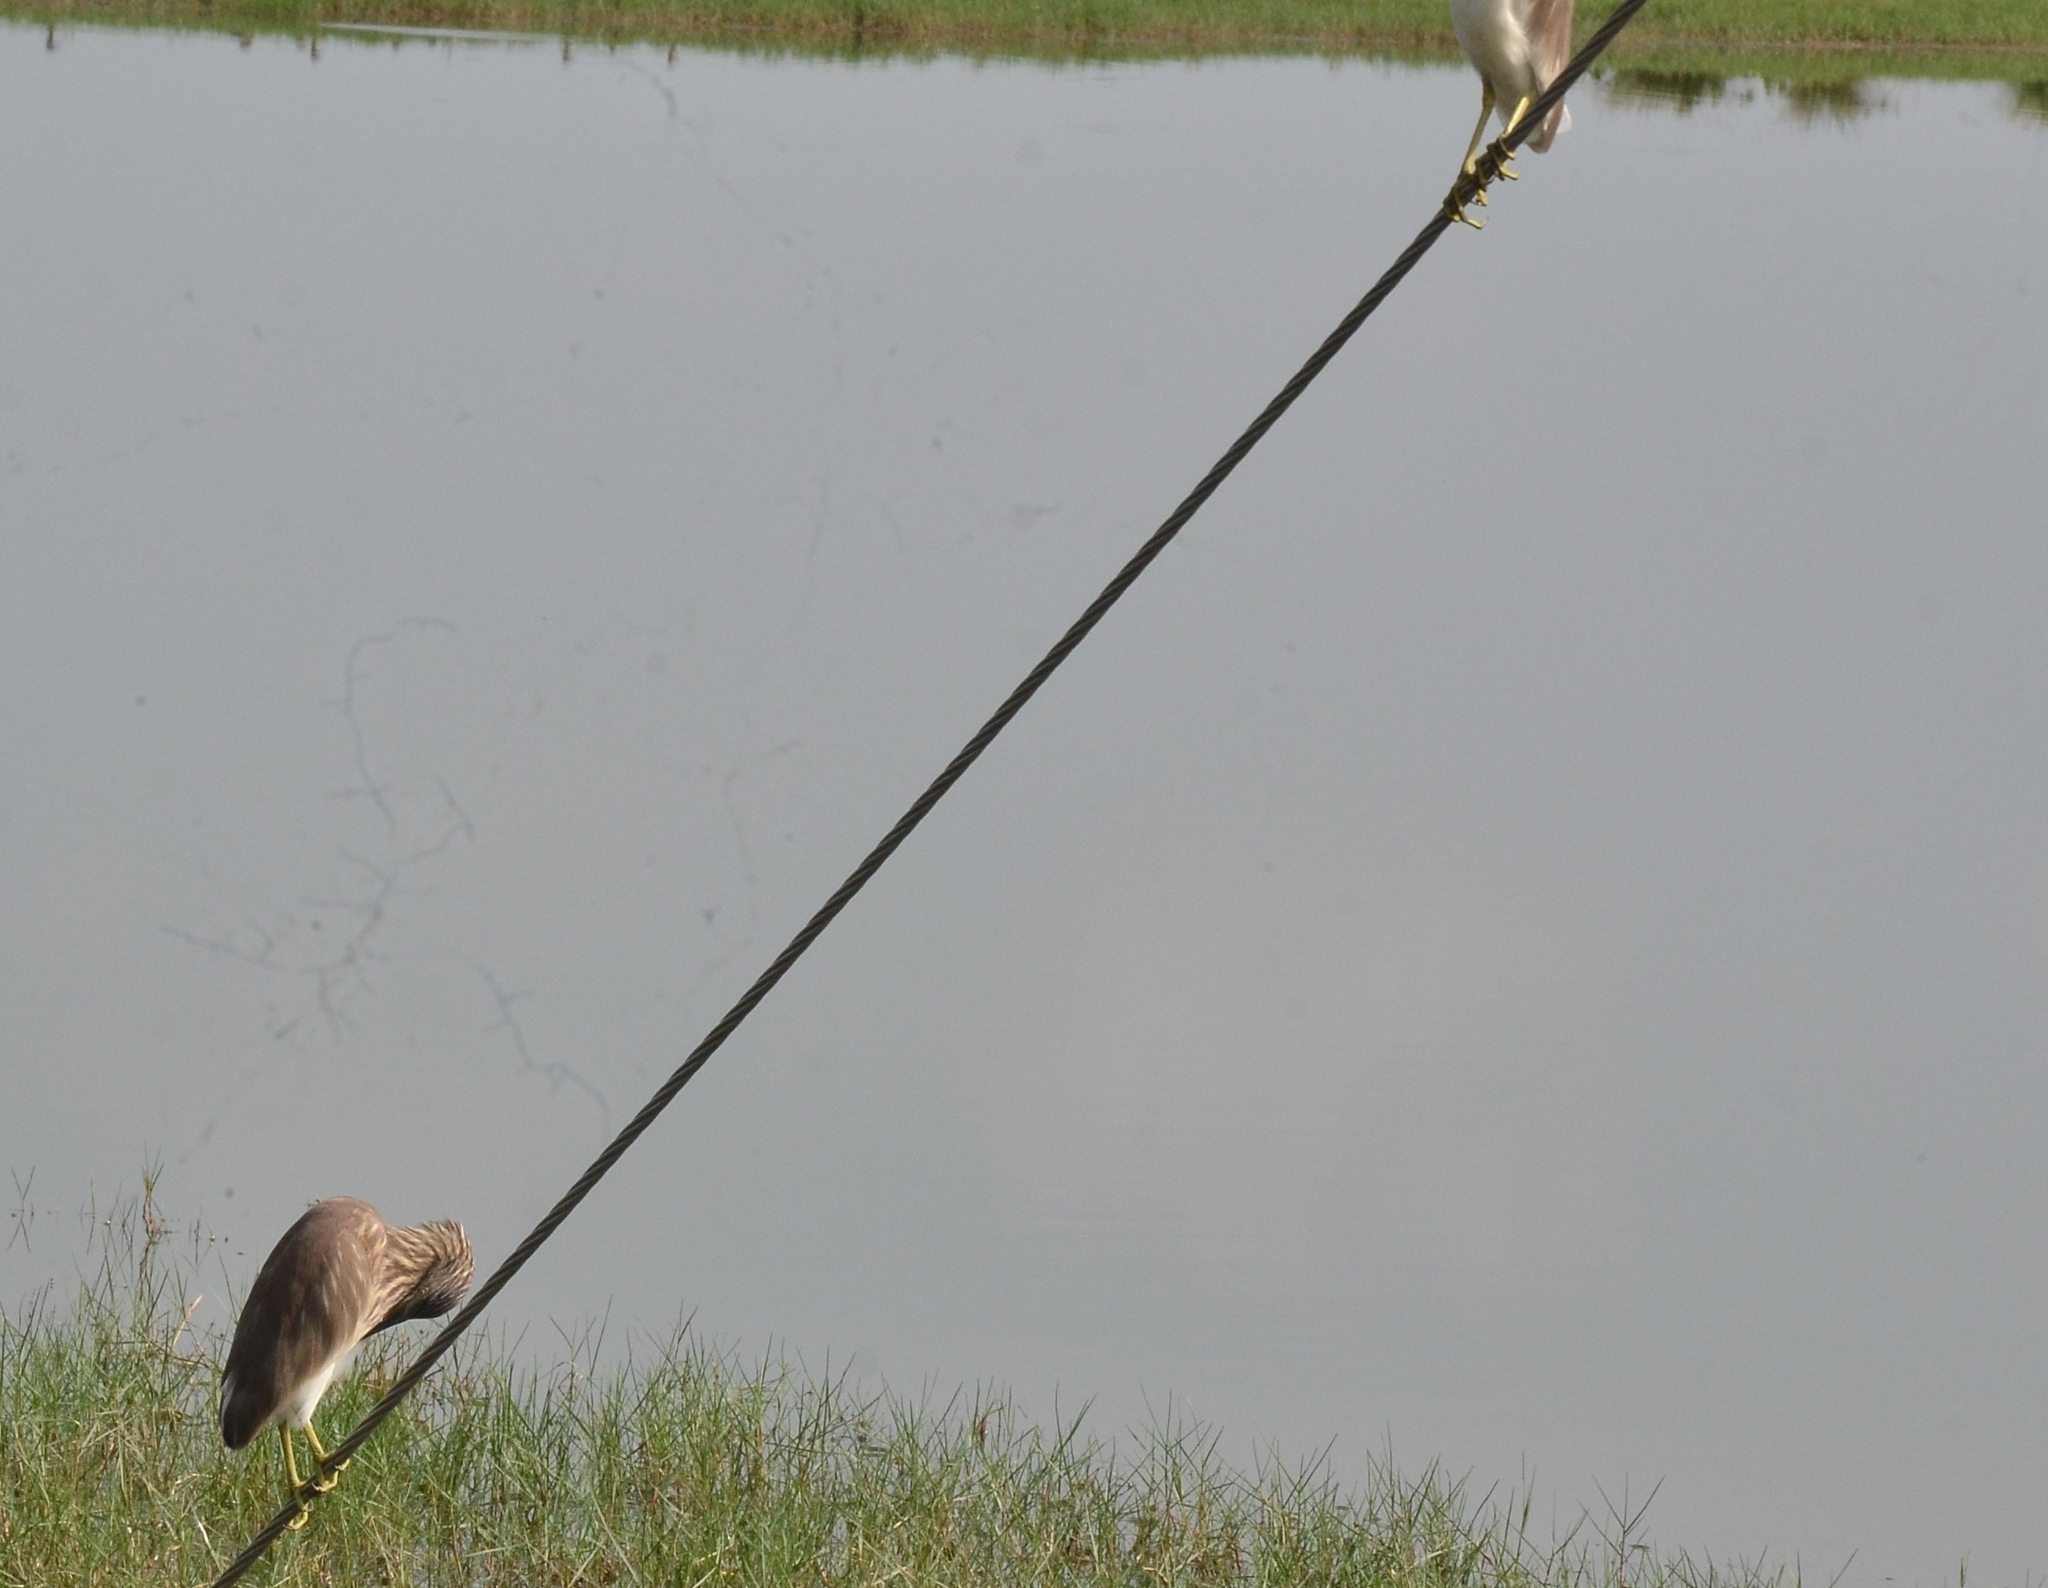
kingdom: Animalia
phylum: Chordata
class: Aves
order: Pelecaniformes
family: Ardeidae
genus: Ardeola
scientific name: Ardeola grayii
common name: Indian pond heron
